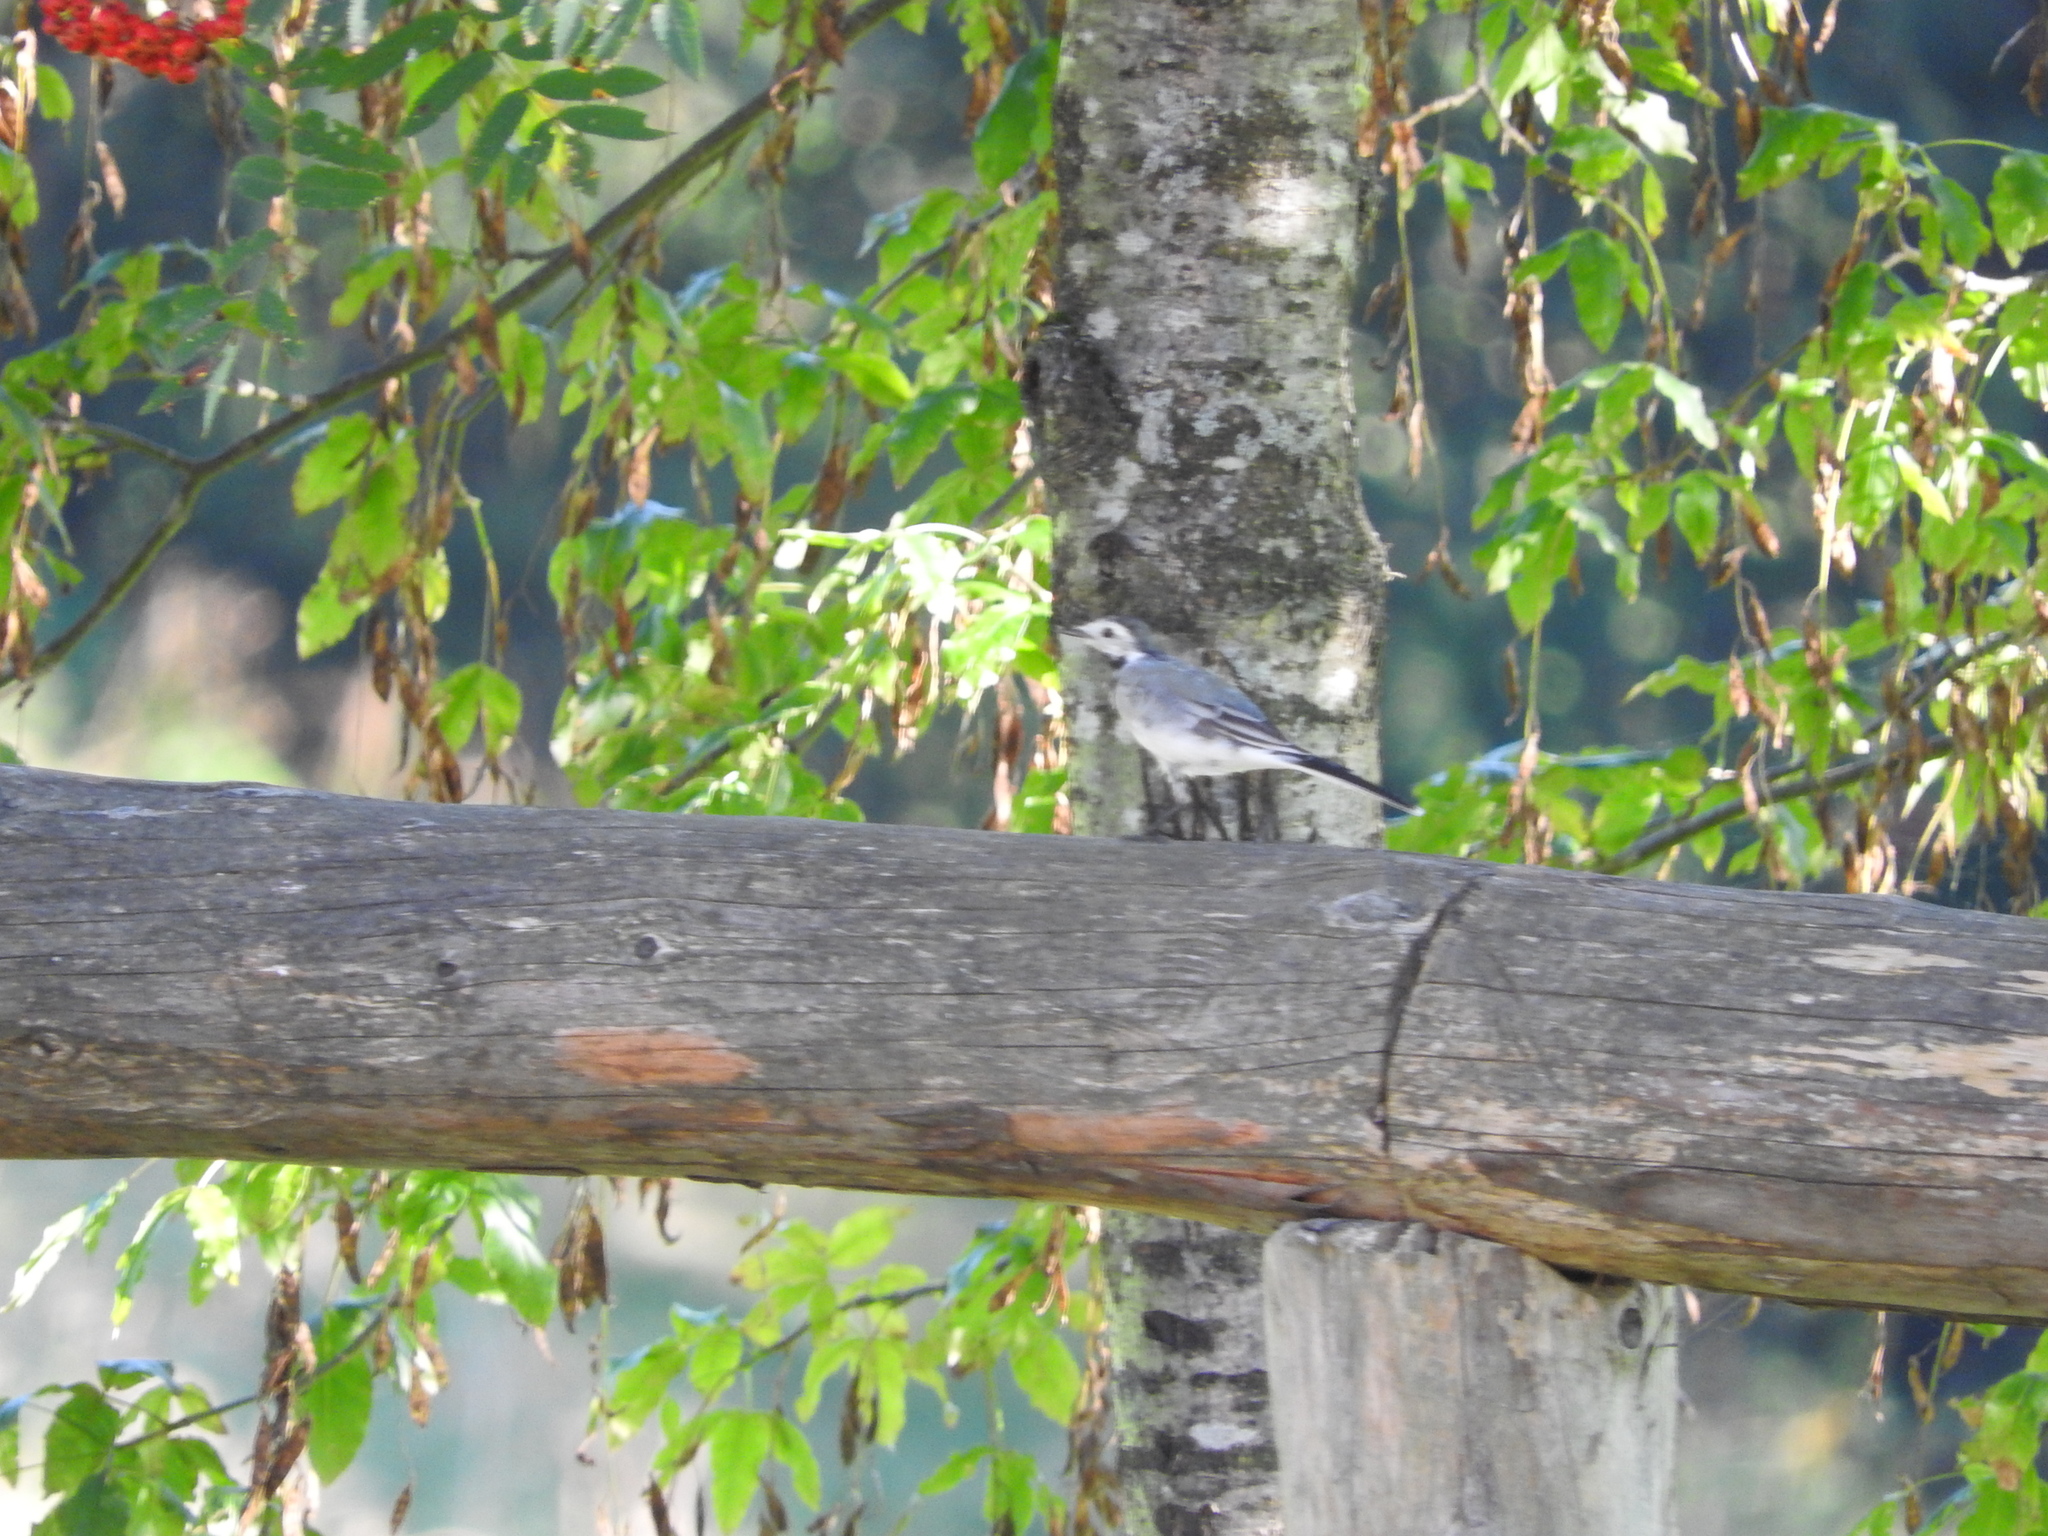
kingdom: Animalia
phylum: Chordata
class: Aves
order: Passeriformes
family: Motacillidae
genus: Motacilla
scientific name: Motacilla alba
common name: White wagtail
